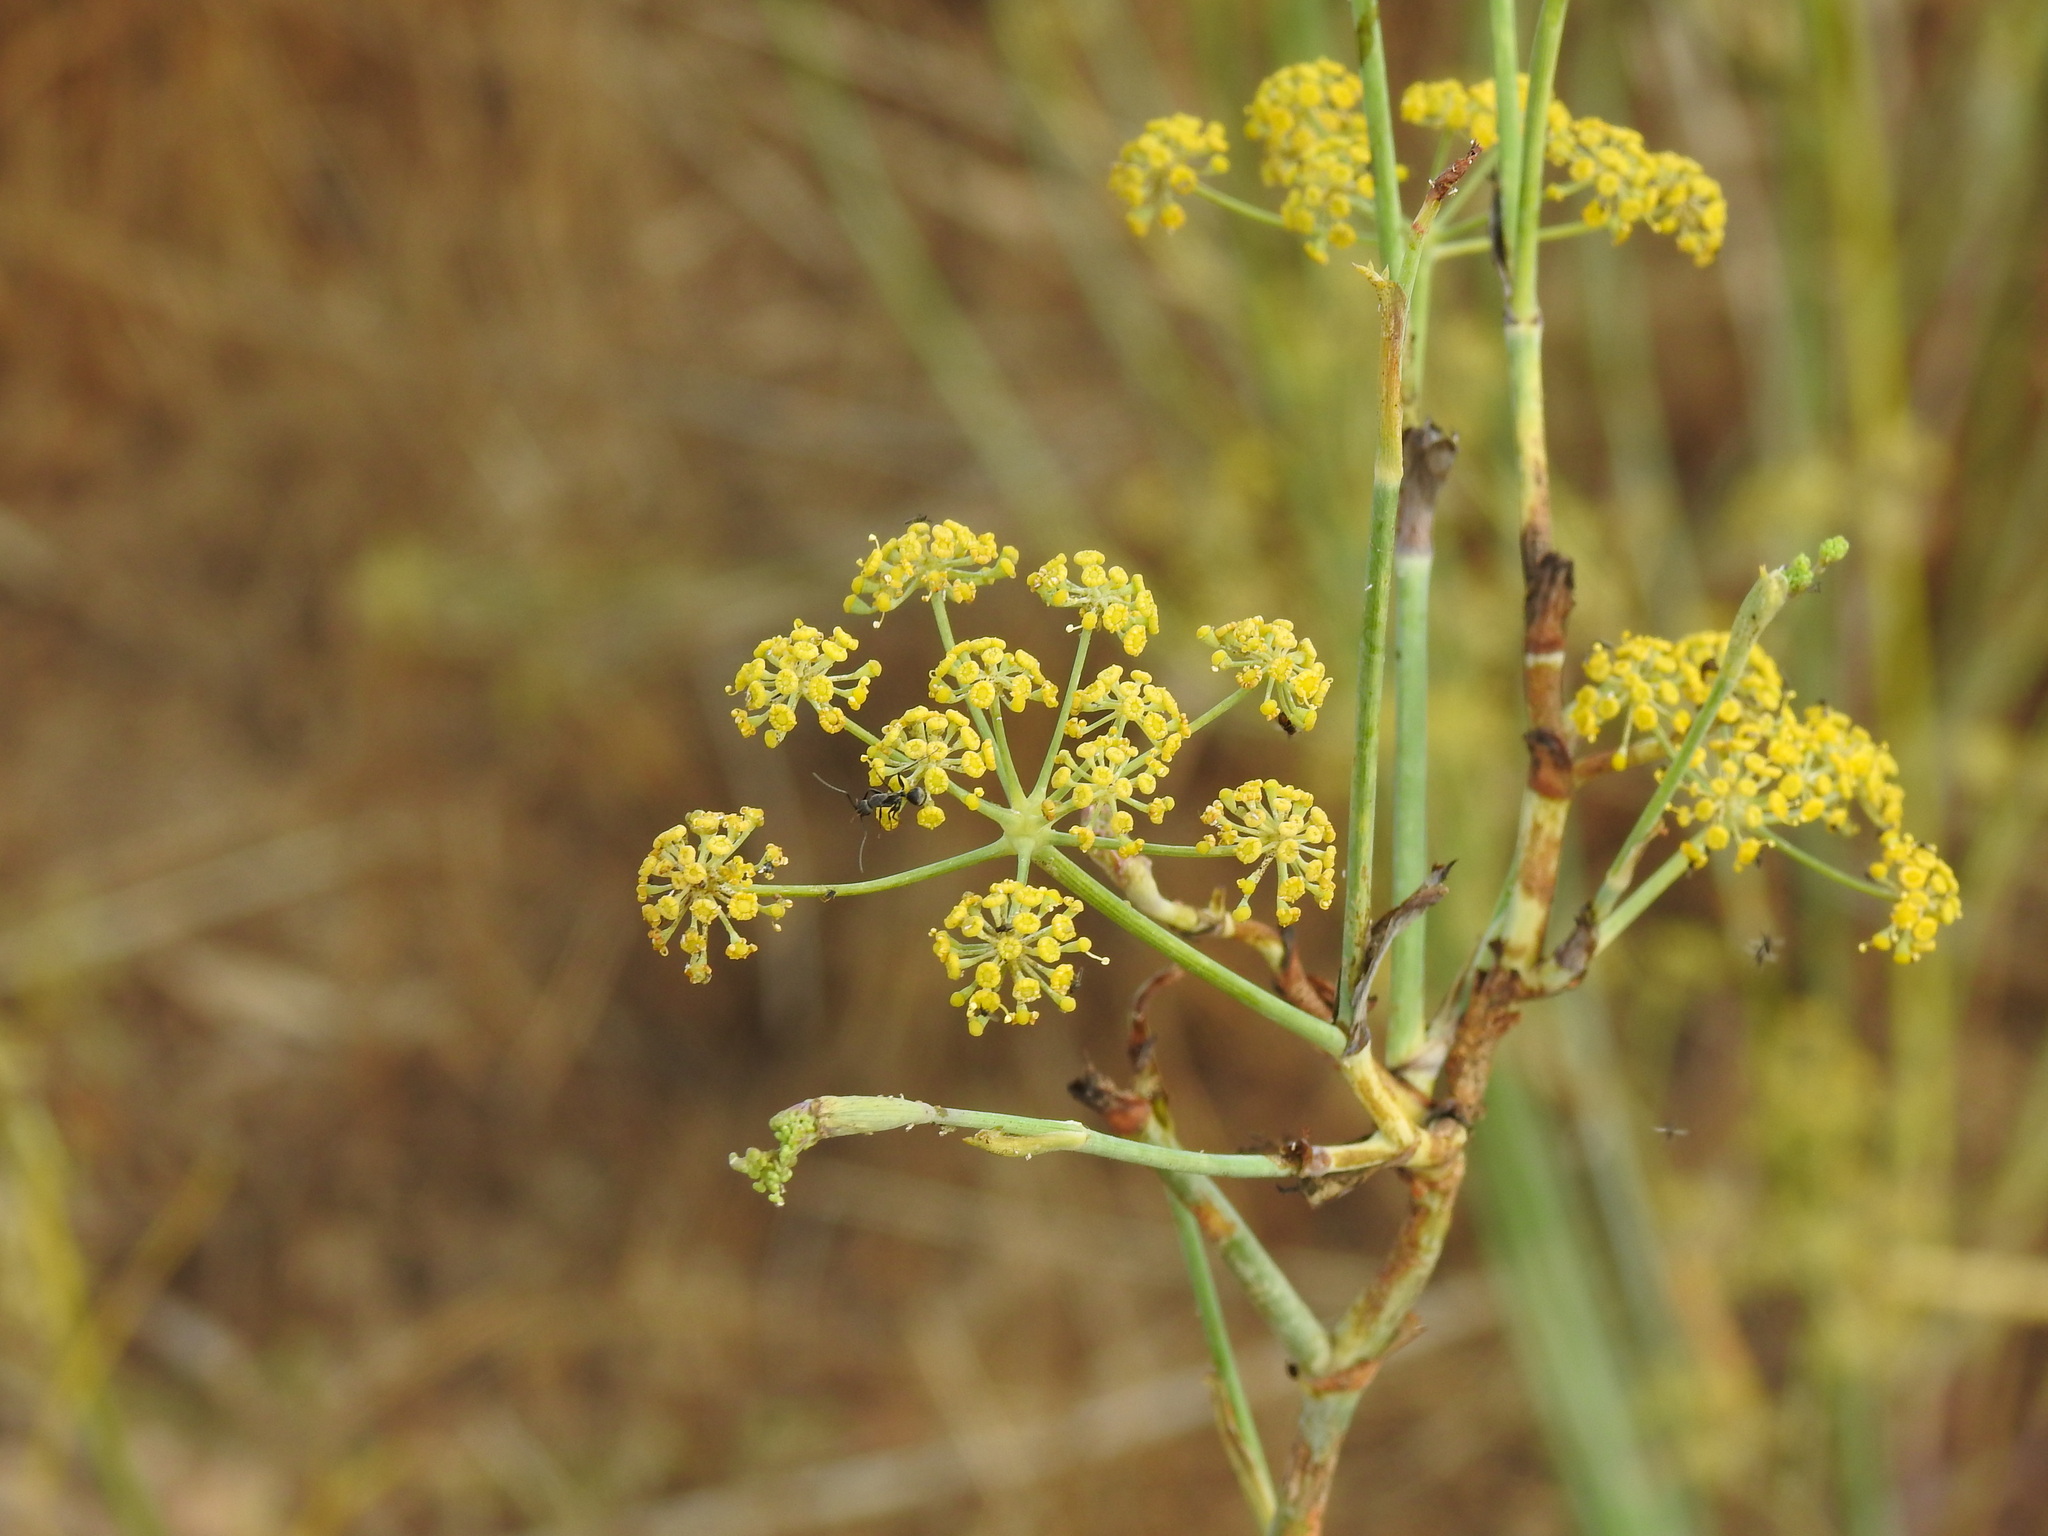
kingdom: Plantae
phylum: Tracheophyta
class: Magnoliopsida
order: Apiales
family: Apiaceae
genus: Foeniculum
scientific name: Foeniculum vulgare
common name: Fennel
